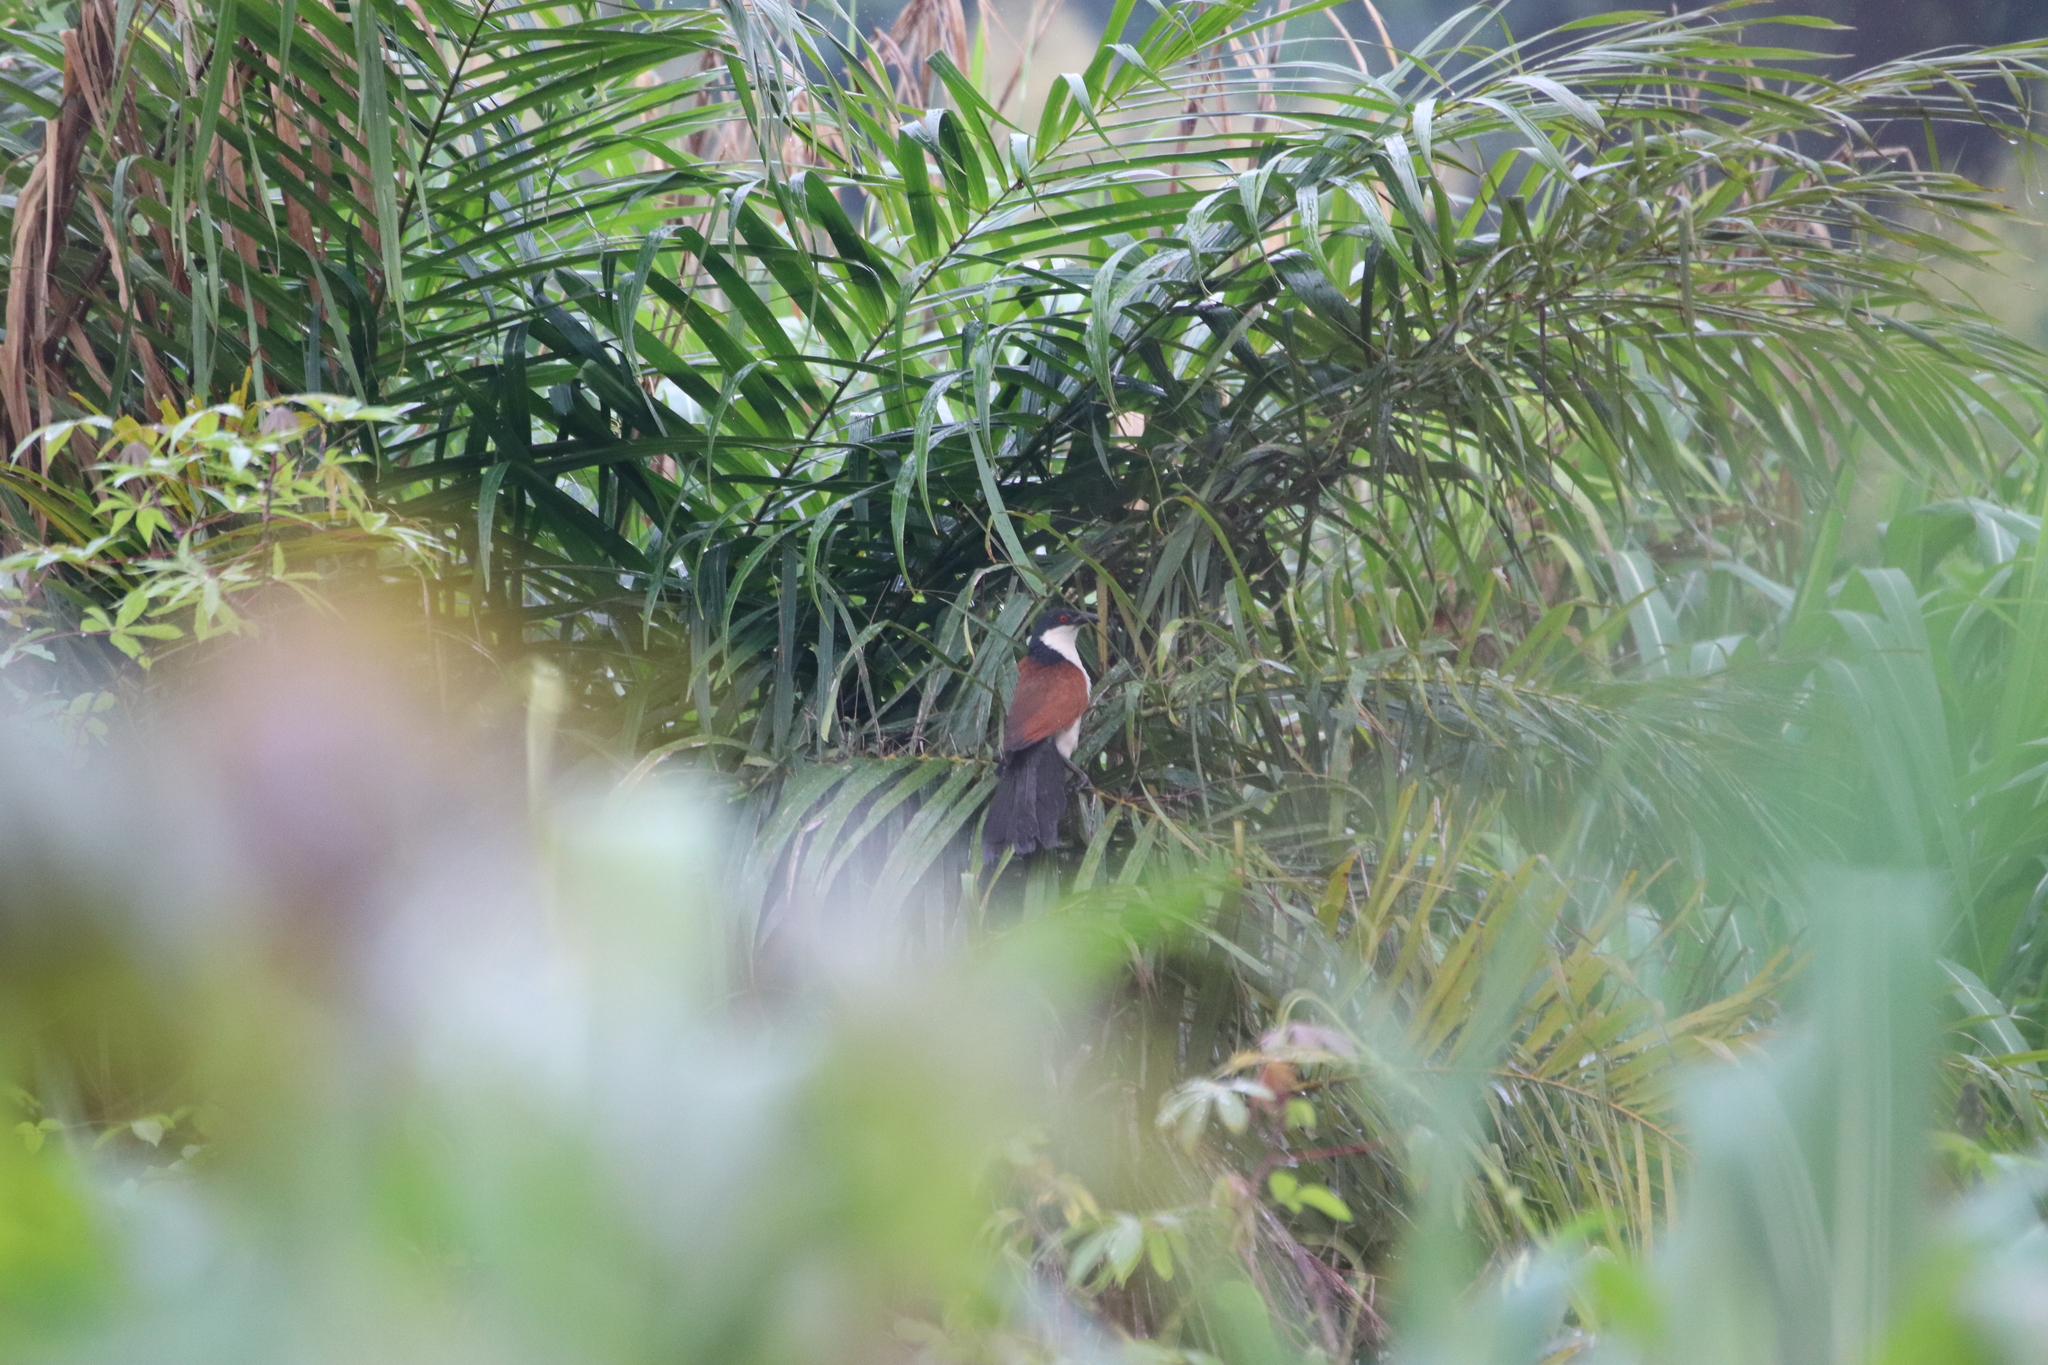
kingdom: Animalia
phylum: Chordata
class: Aves
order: Cuculiformes
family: Cuculidae
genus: Centropus
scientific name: Centropus senegalensis
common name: Senegal coucal
